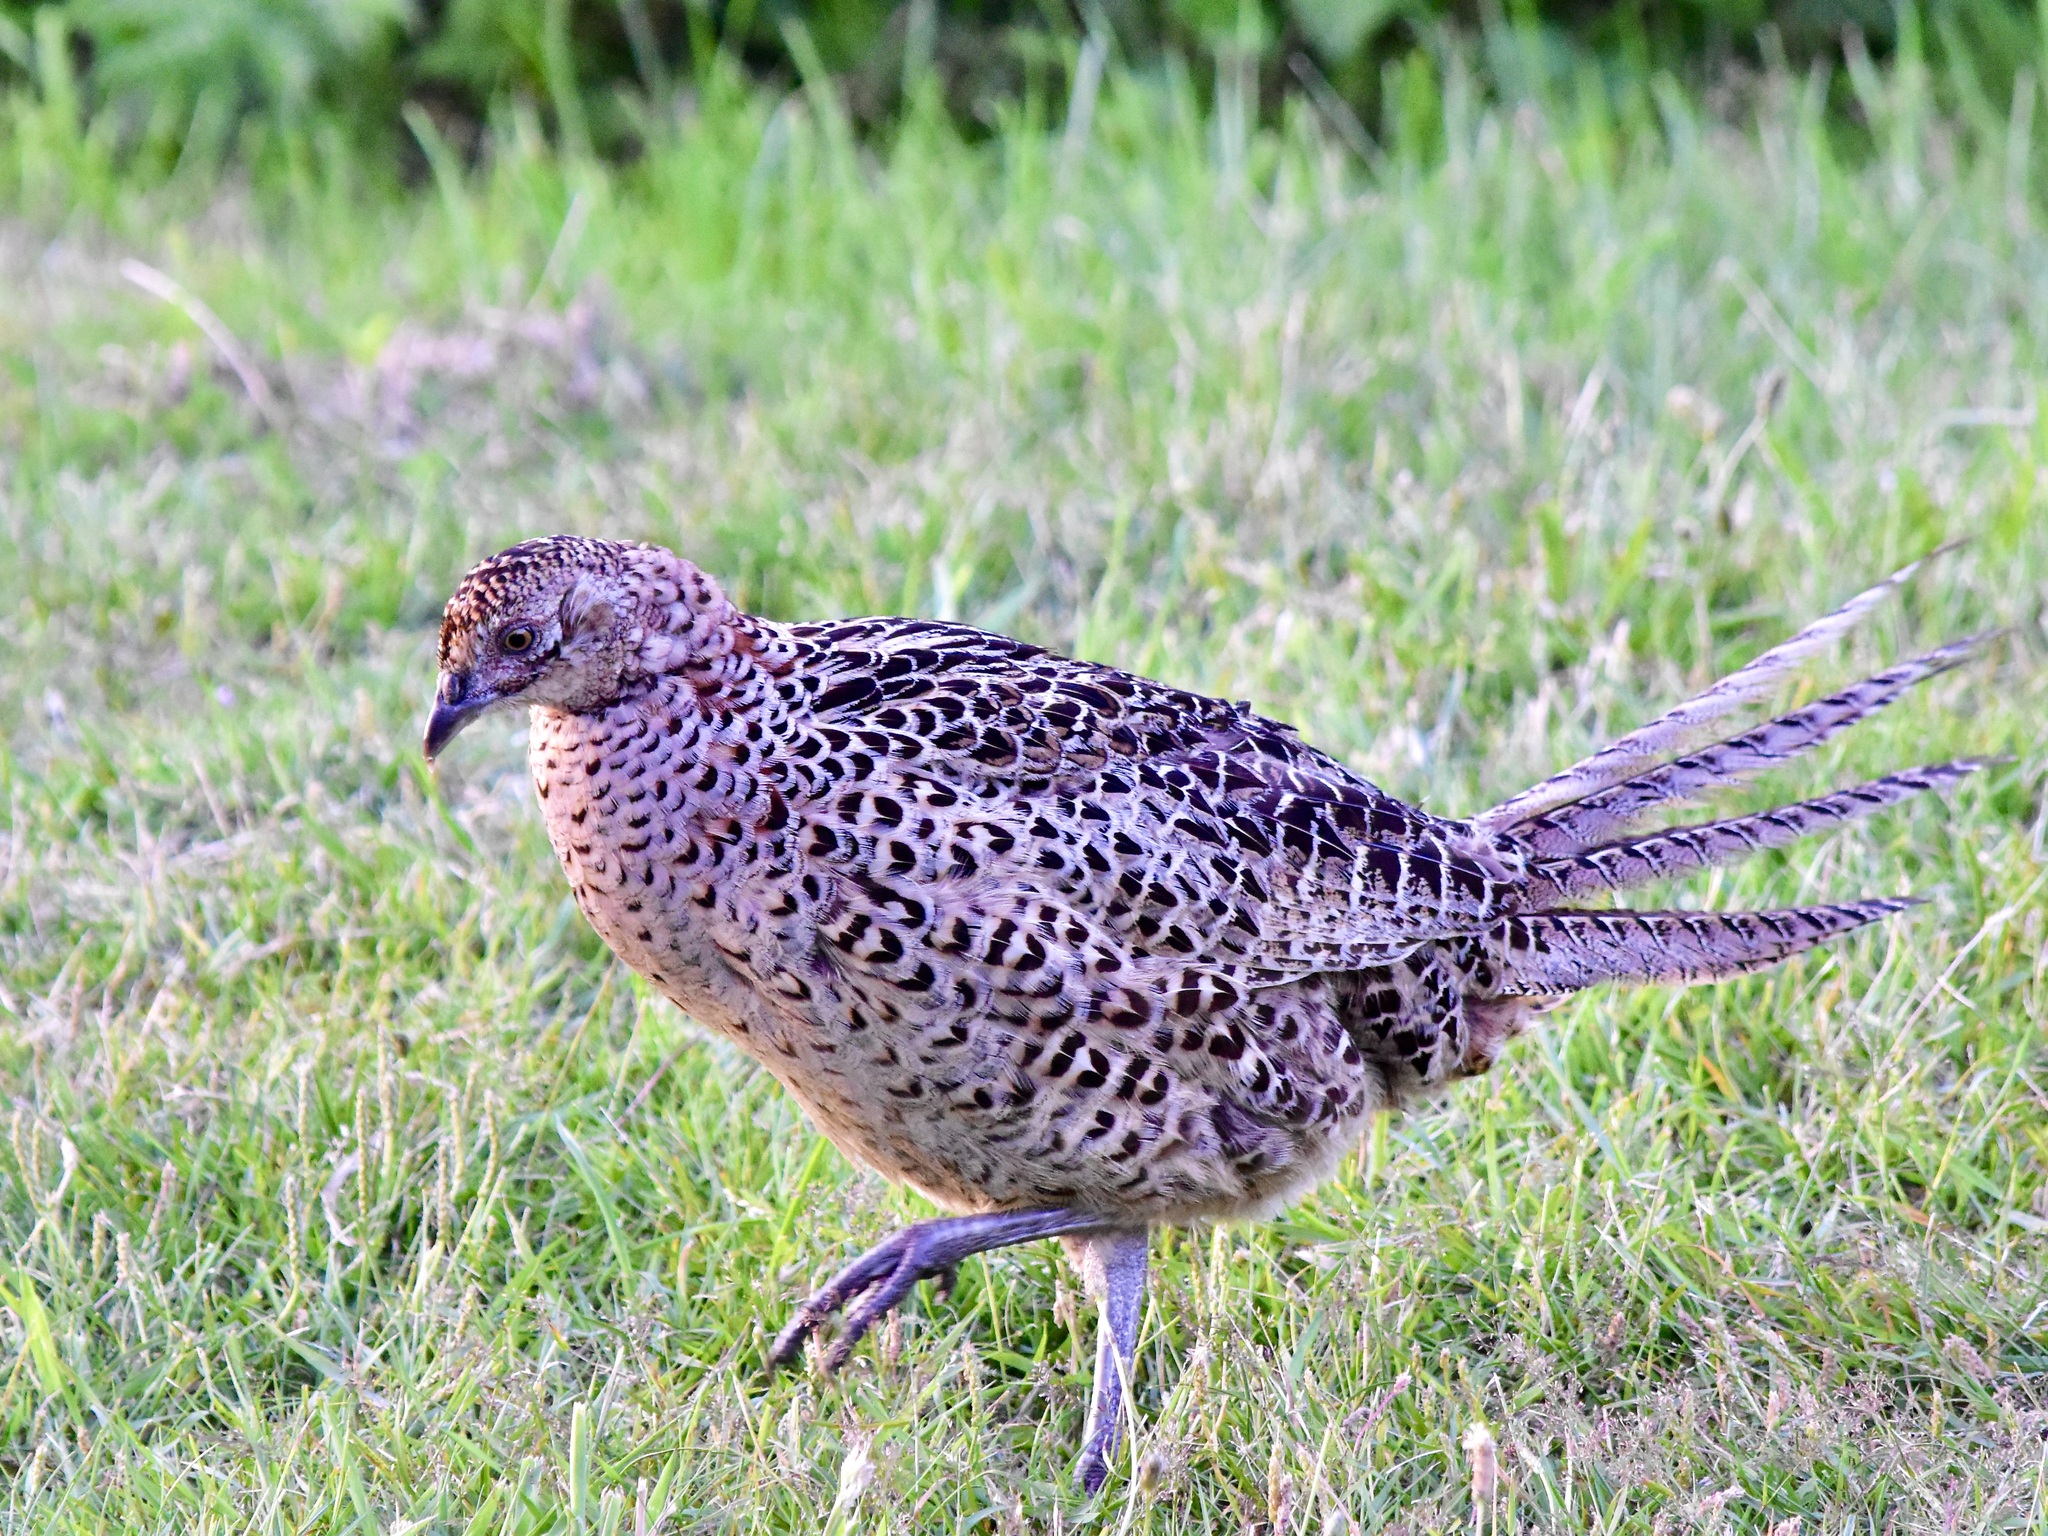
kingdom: Animalia
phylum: Chordata
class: Aves
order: Galliformes
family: Phasianidae
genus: Phasianus
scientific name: Phasianus colchicus
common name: Common pheasant
